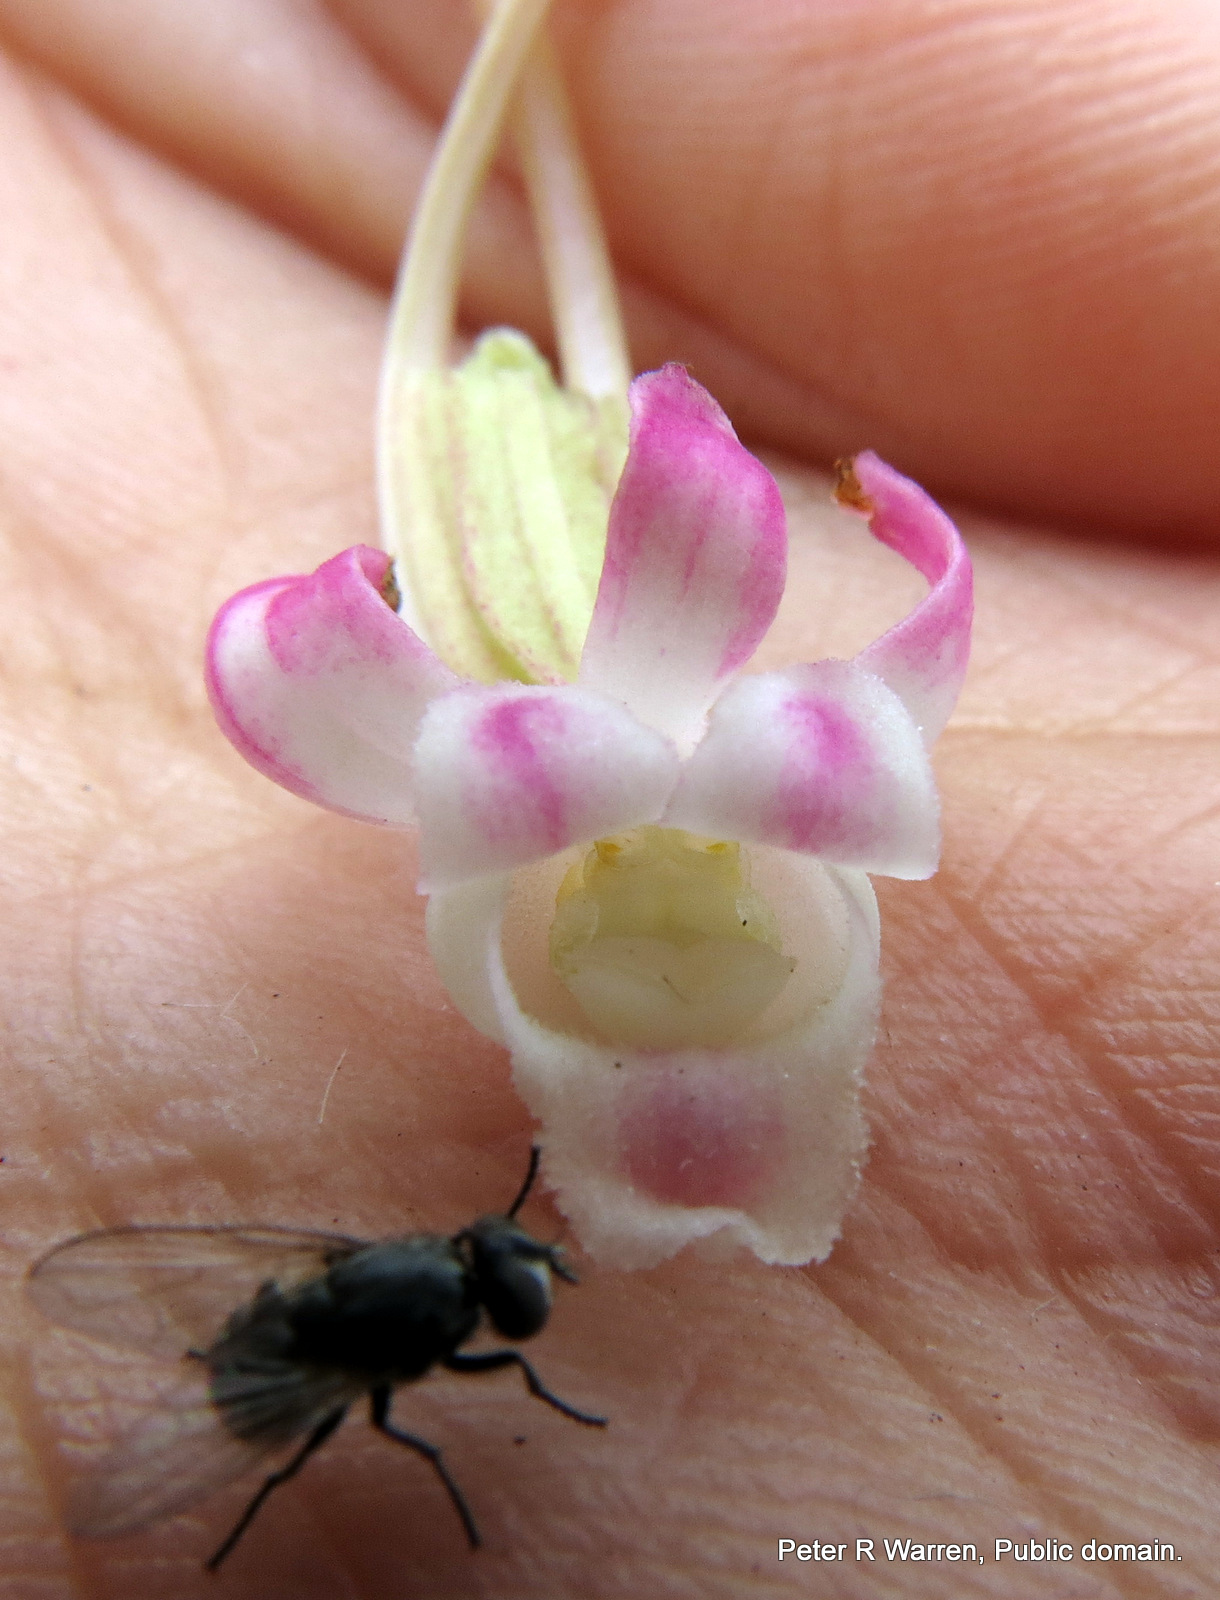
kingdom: Plantae
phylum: Tracheophyta
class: Liliopsida
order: Asparagales
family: Orchidaceae
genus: Satyrium
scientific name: Satyrium longicauda
